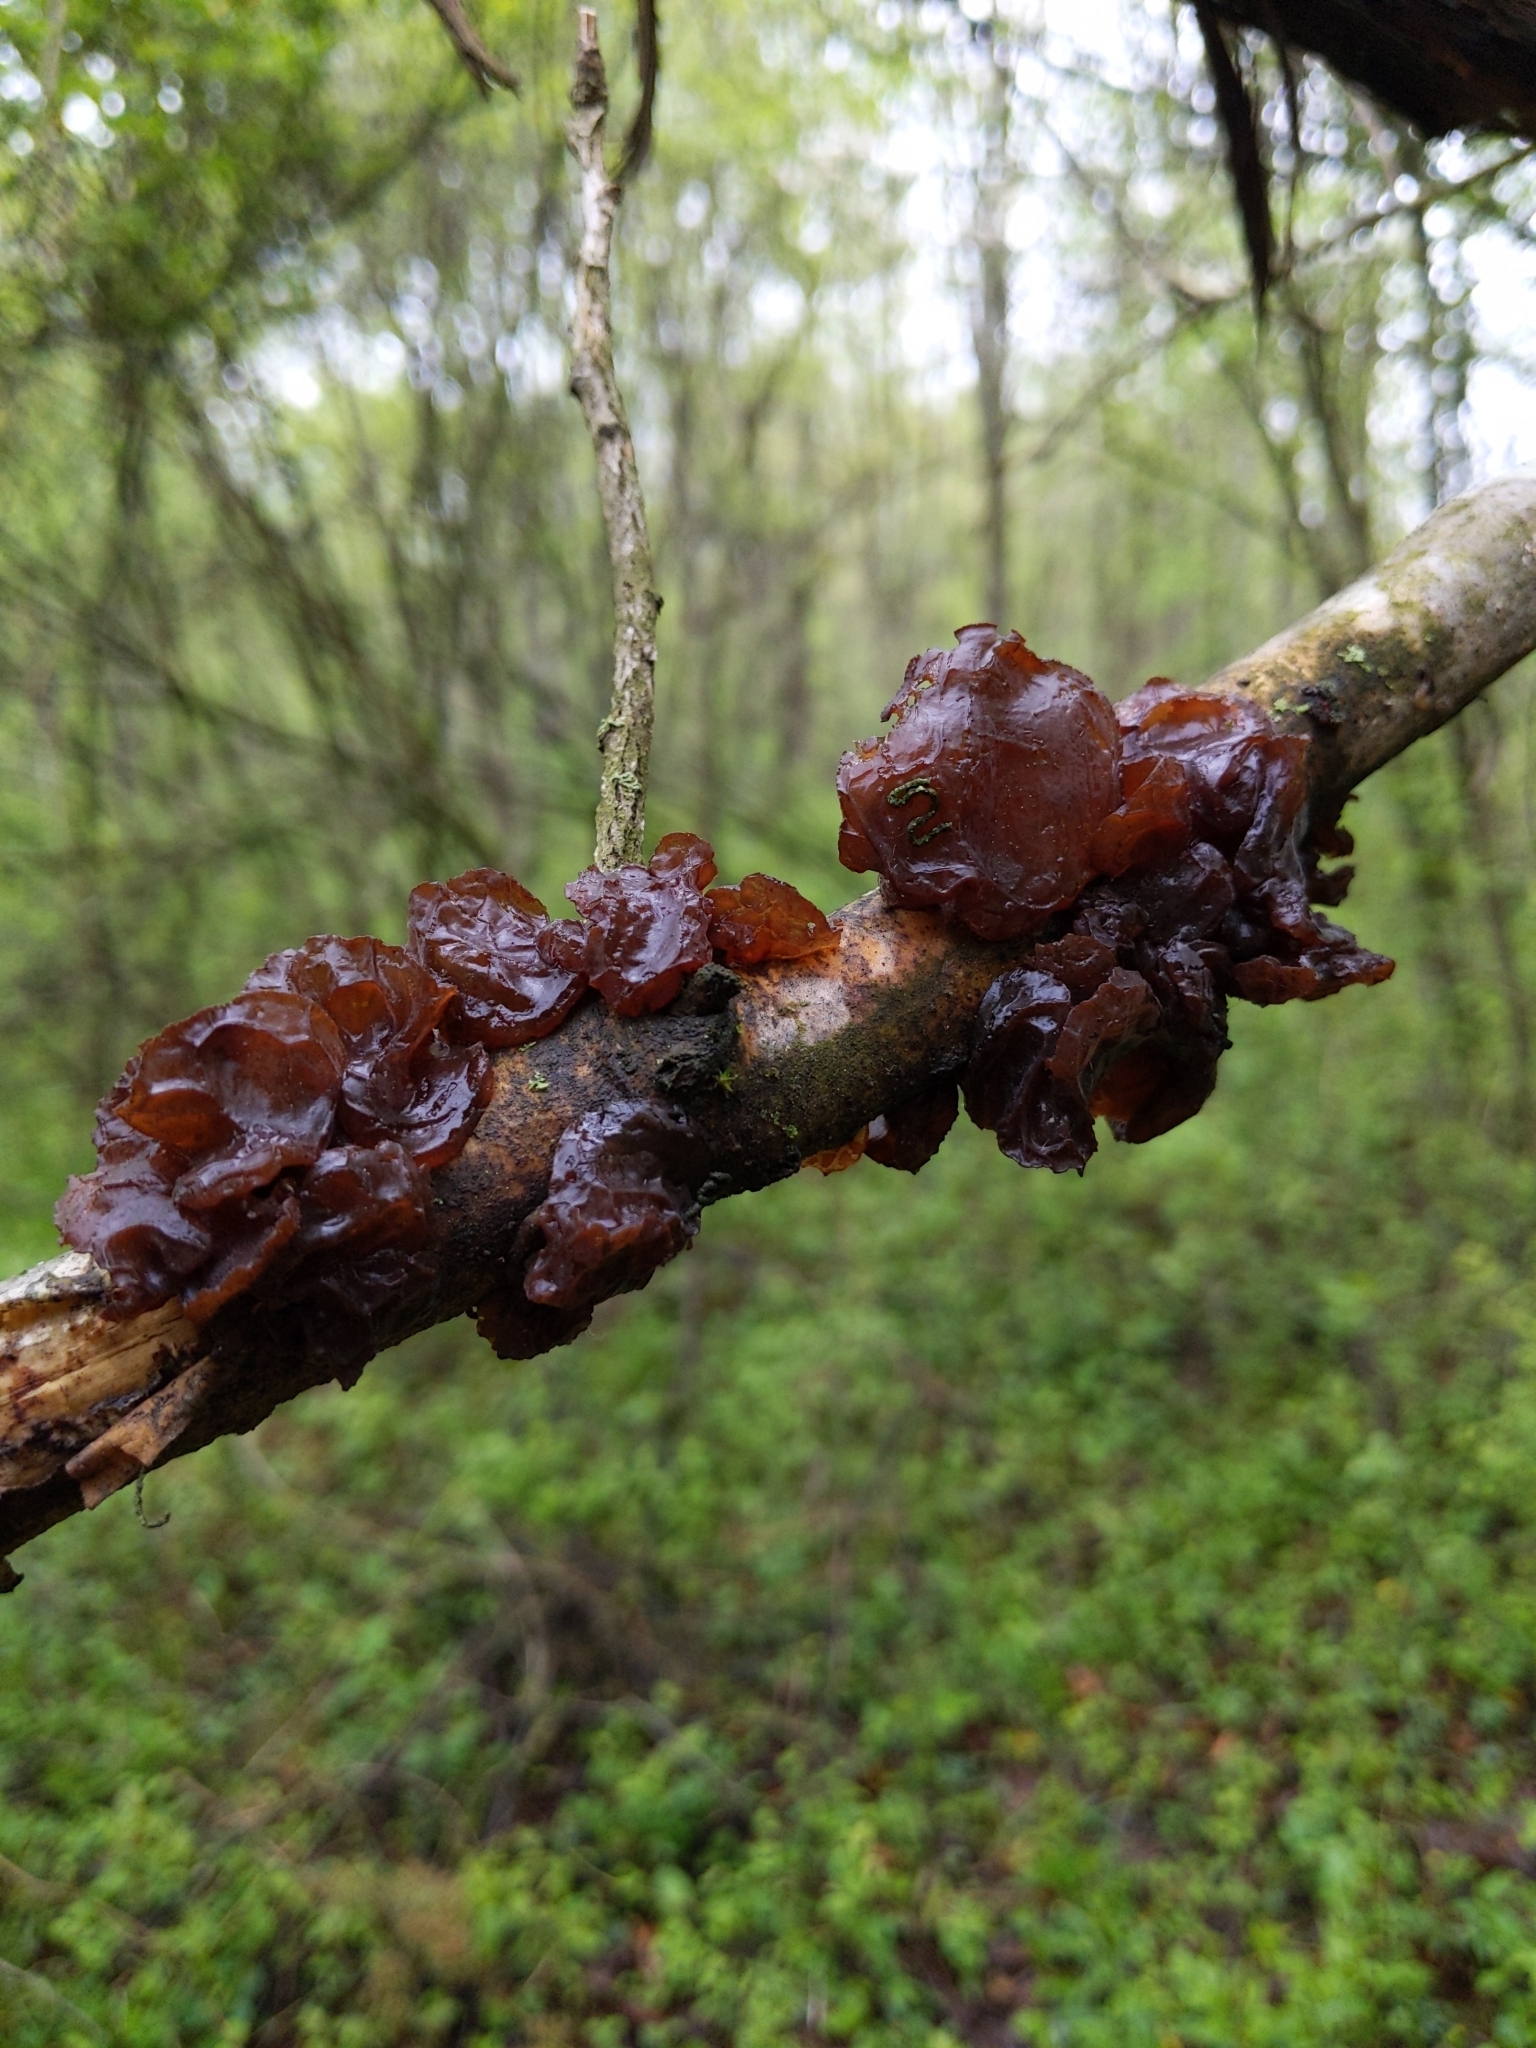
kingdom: Fungi
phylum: Basidiomycota
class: Agaricomycetes
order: Auriculariales
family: Auriculariaceae
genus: Exidia
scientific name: Exidia
